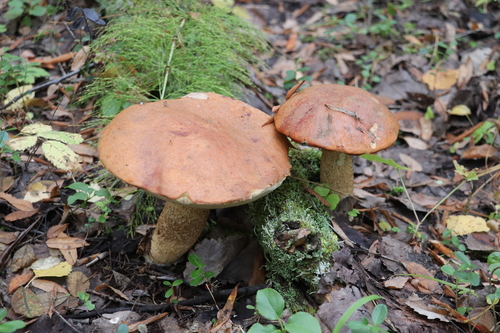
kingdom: Fungi
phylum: Basidiomycota
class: Agaricomycetes
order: Boletales
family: Boletaceae
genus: Leccinum
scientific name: Leccinum albostipitatum
